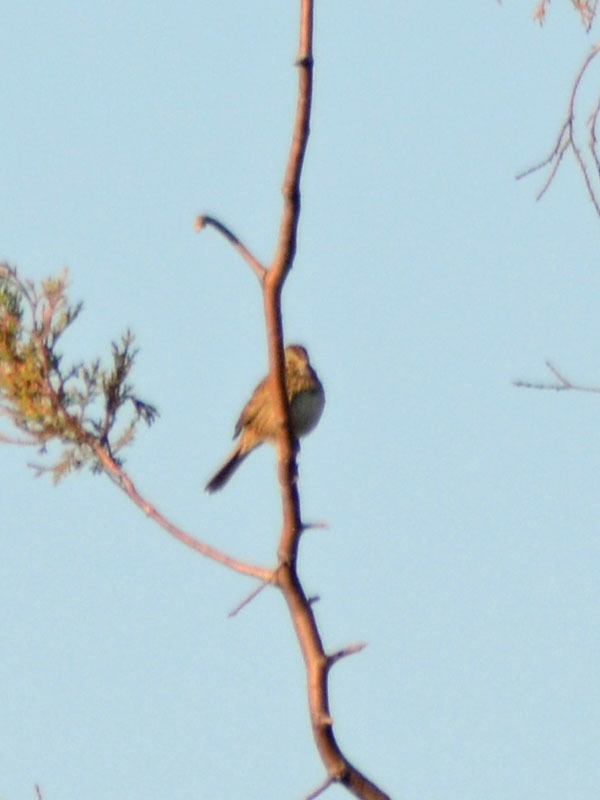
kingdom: Animalia
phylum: Chordata
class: Aves
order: Passeriformes
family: Passerellidae
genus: Melospiza
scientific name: Melospiza lincolnii
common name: Lincoln's sparrow
